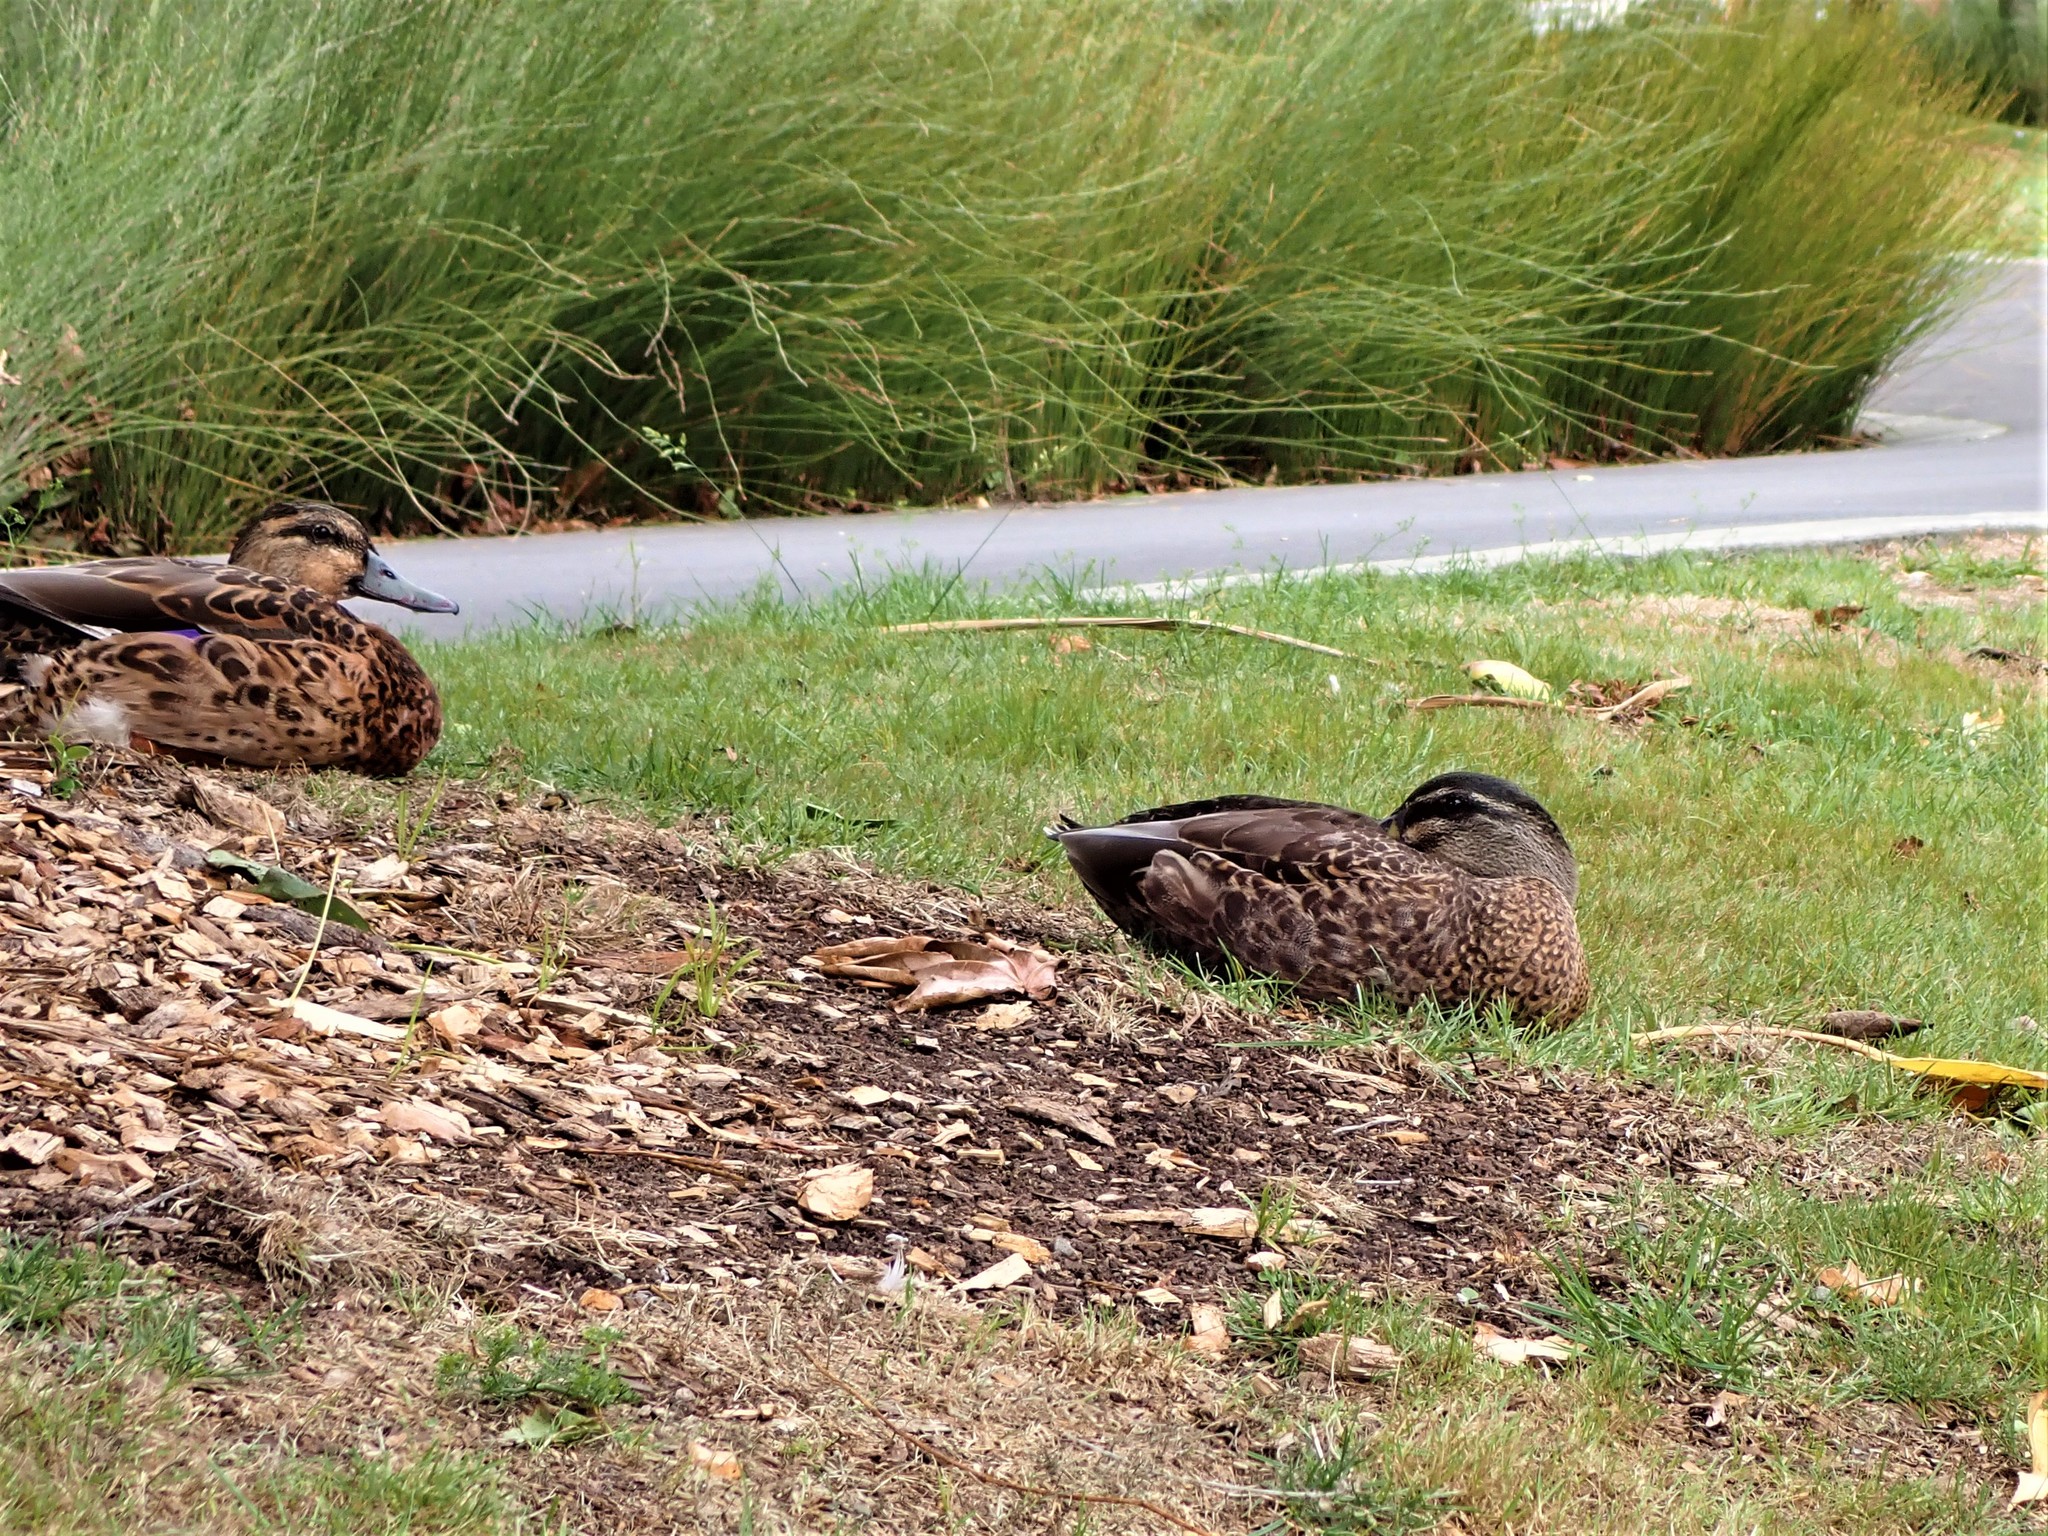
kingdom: Animalia
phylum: Chordata
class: Aves
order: Anseriformes
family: Anatidae
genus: Anas
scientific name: Anas
